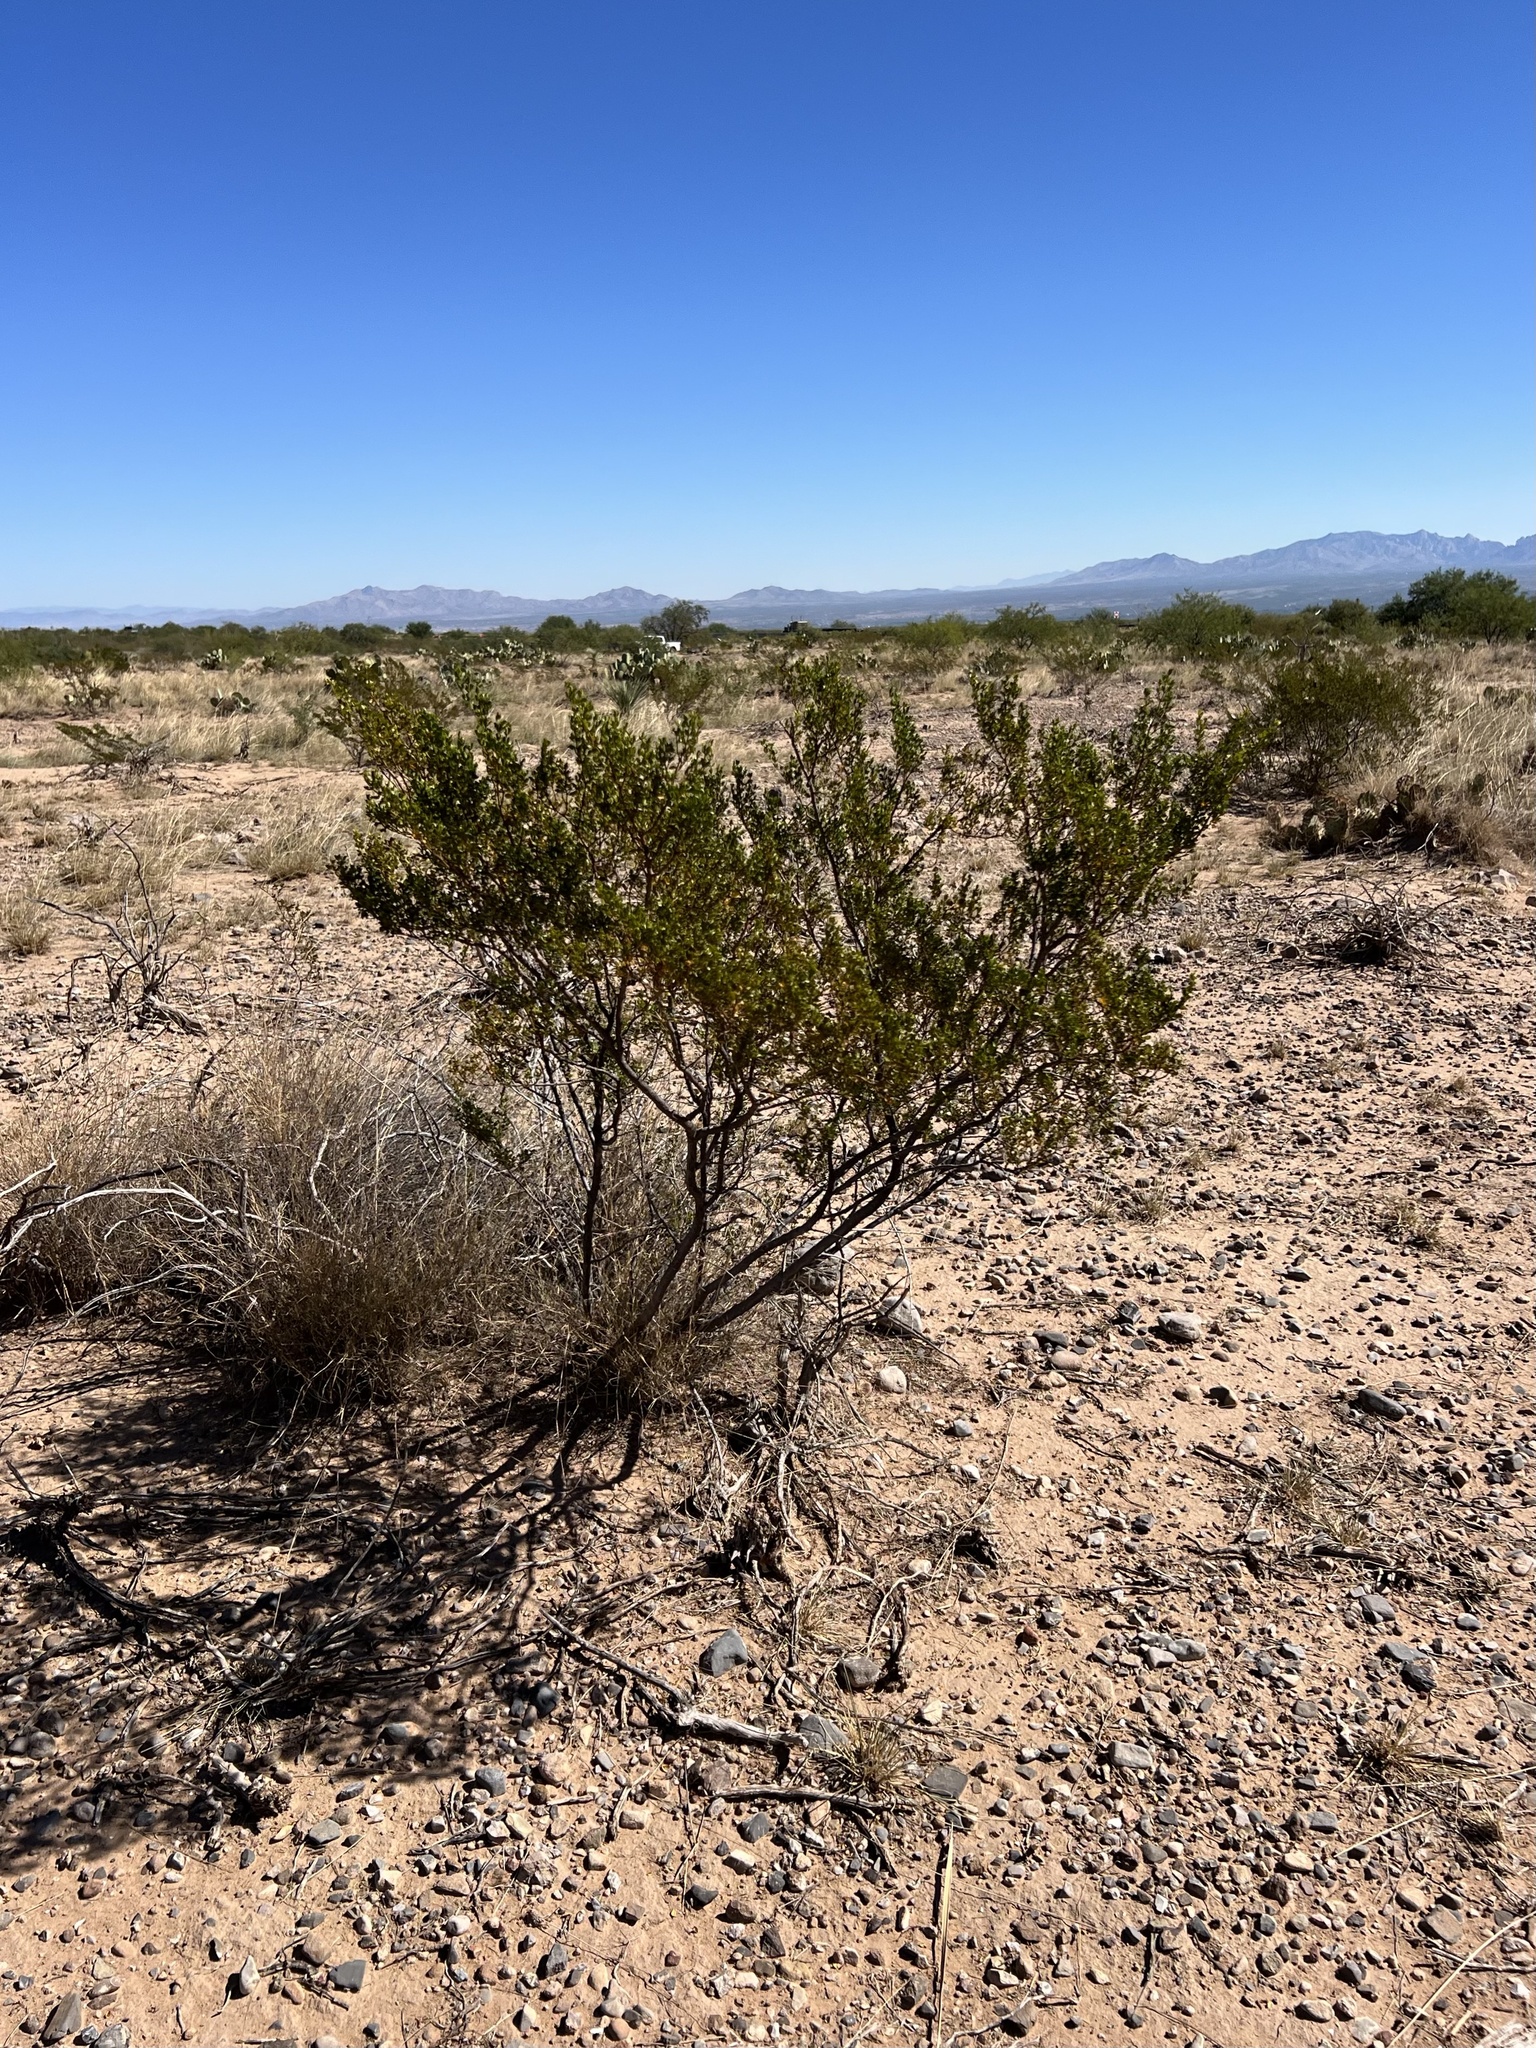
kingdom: Plantae
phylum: Tracheophyta
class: Magnoliopsida
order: Zygophyllales
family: Zygophyllaceae
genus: Larrea
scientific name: Larrea tridentata
